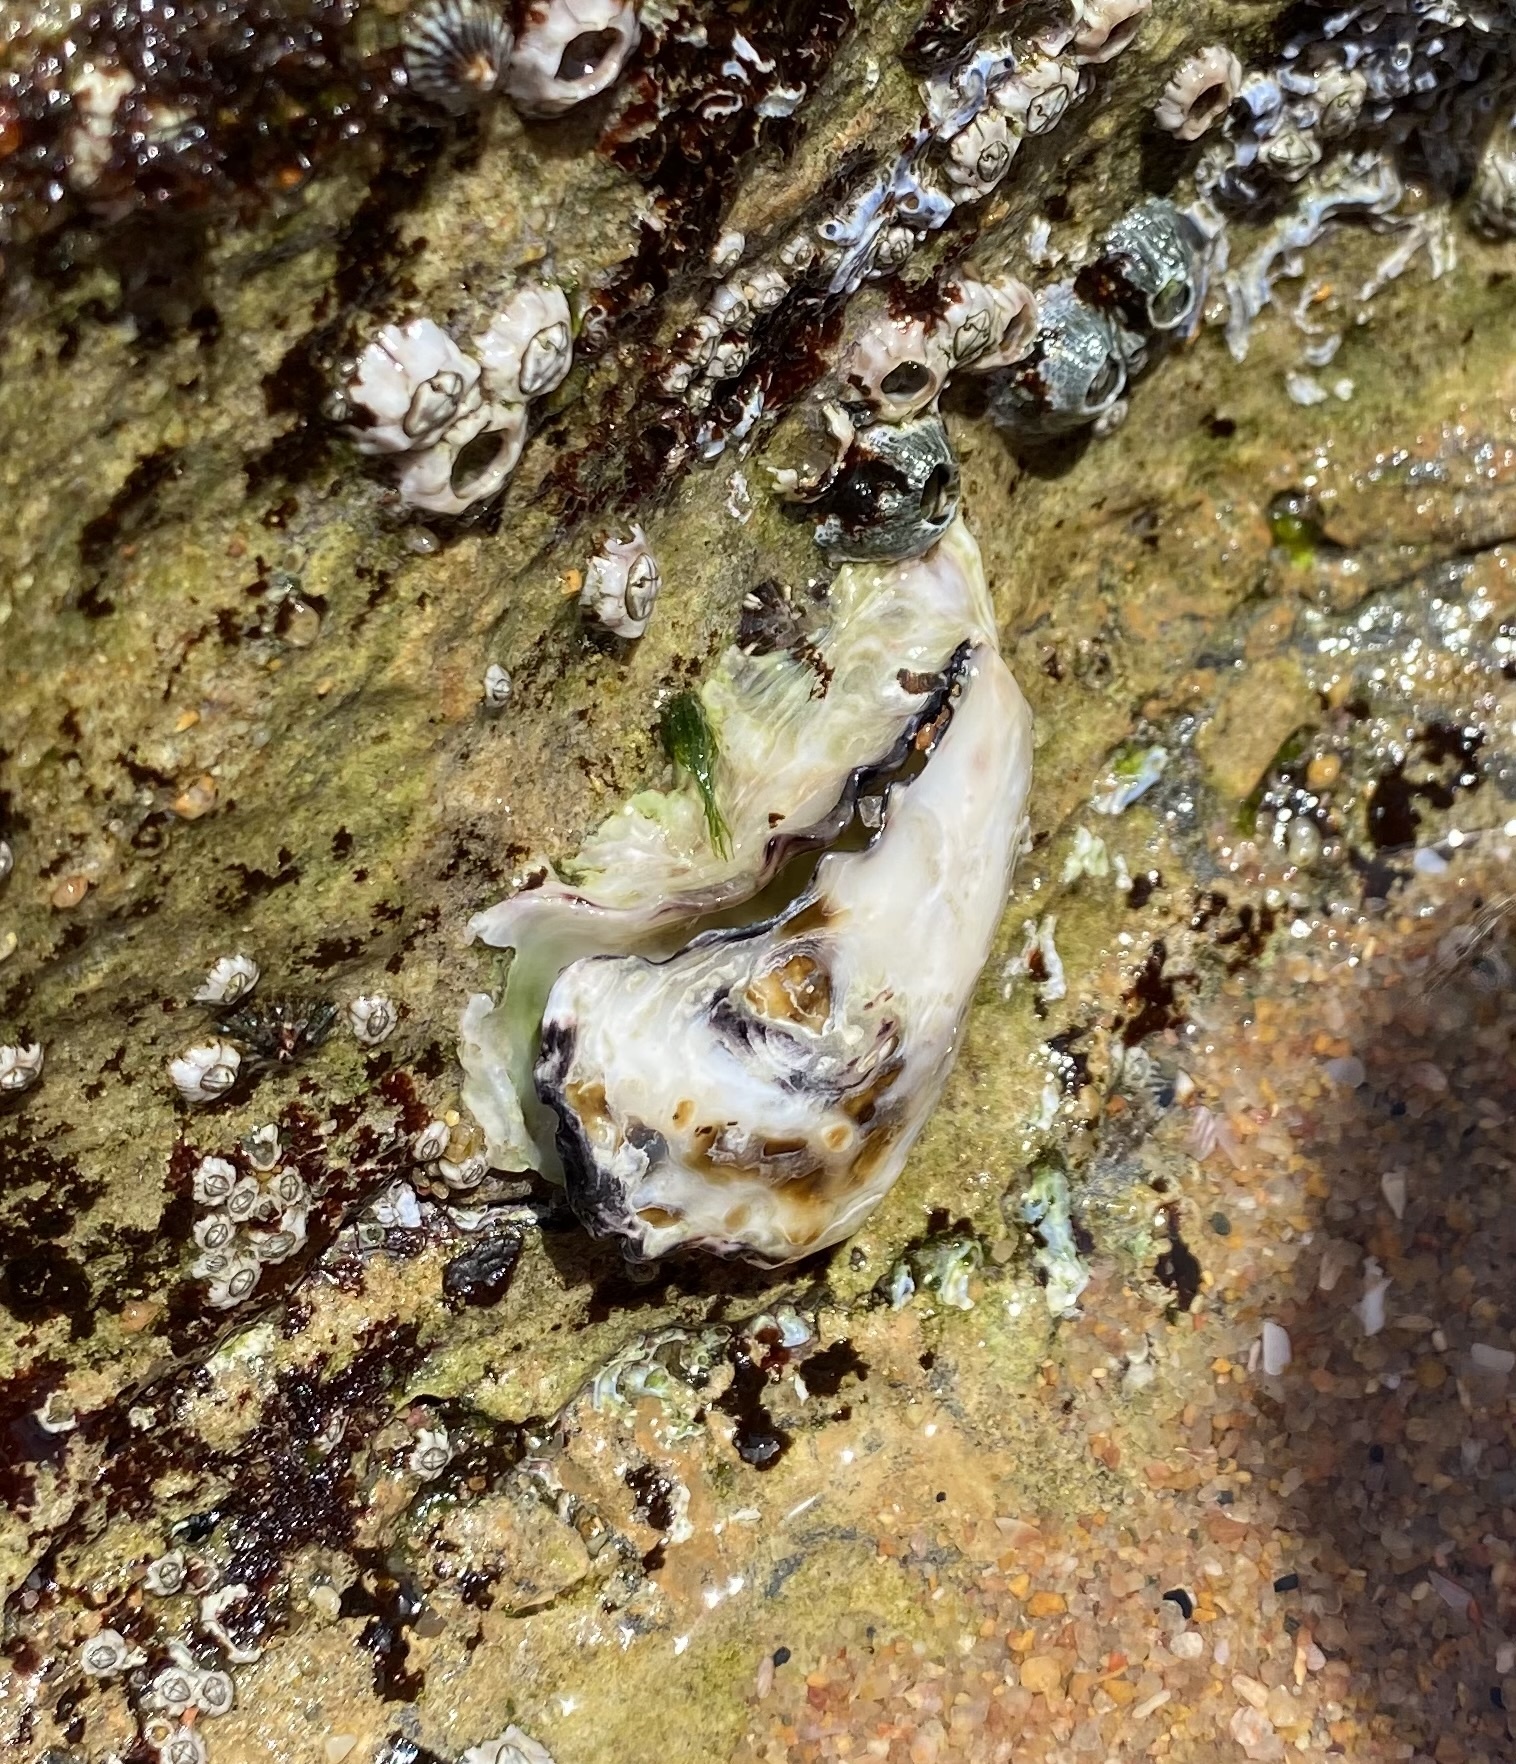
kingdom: Animalia
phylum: Mollusca
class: Bivalvia
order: Ostreida
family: Ostreidae
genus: Saccostrea
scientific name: Saccostrea cuccullata
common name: Natal rock oyster
